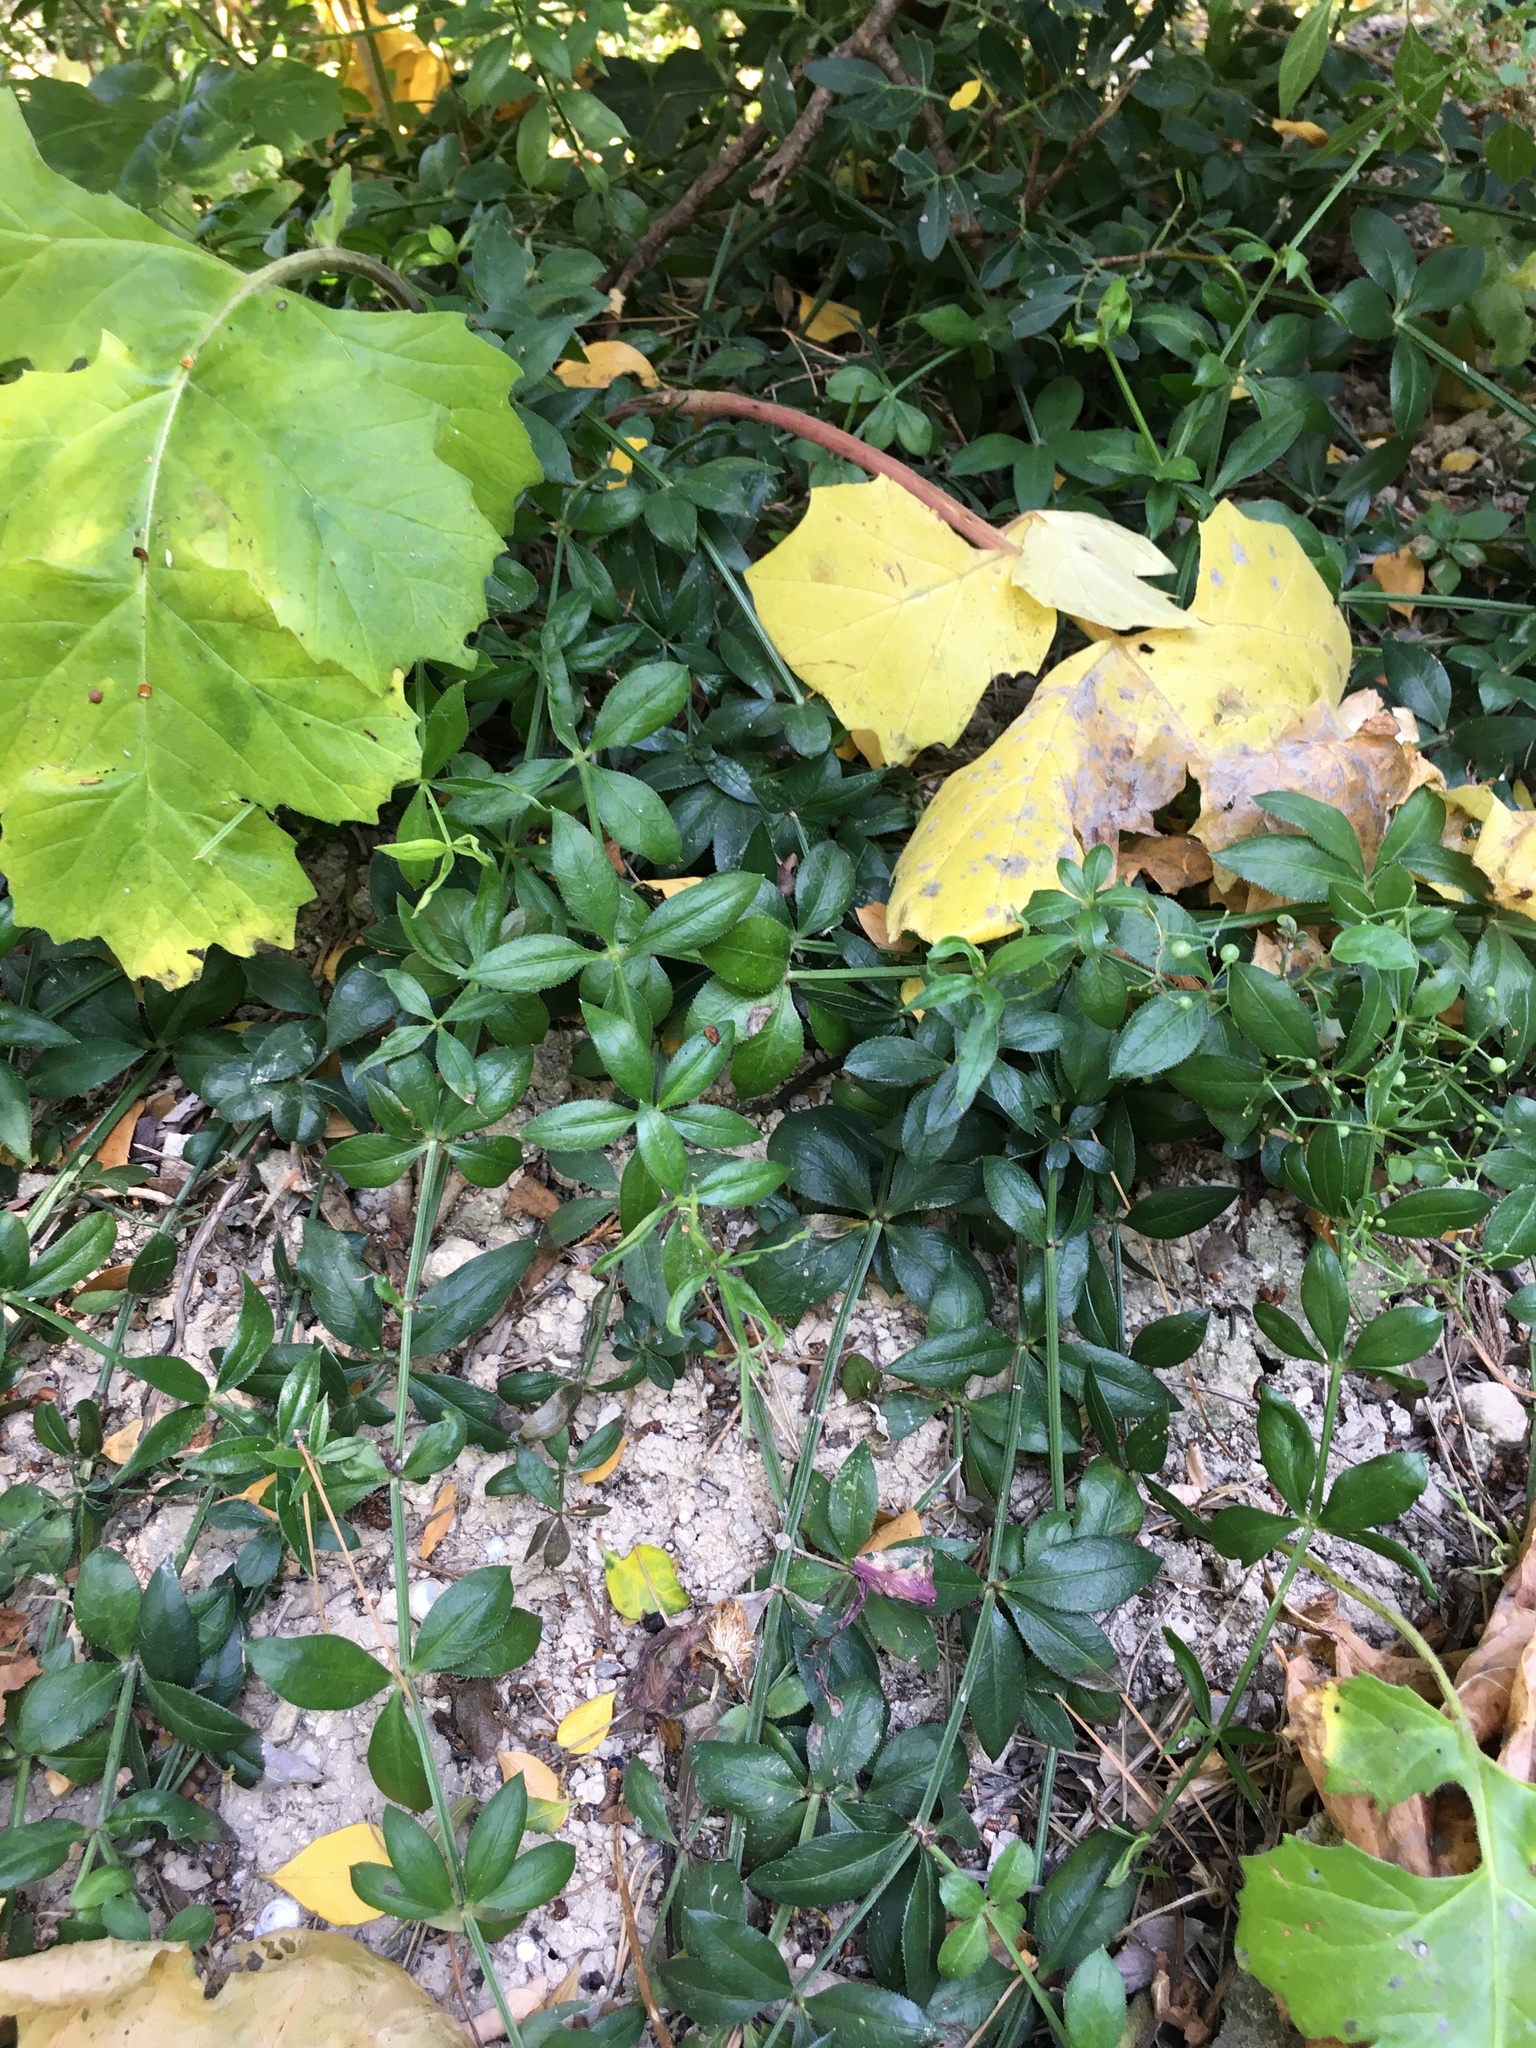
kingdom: Plantae
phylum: Tracheophyta
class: Magnoliopsida
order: Gentianales
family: Rubiaceae
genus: Rubia
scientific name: Rubia peregrina
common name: Wild madder
